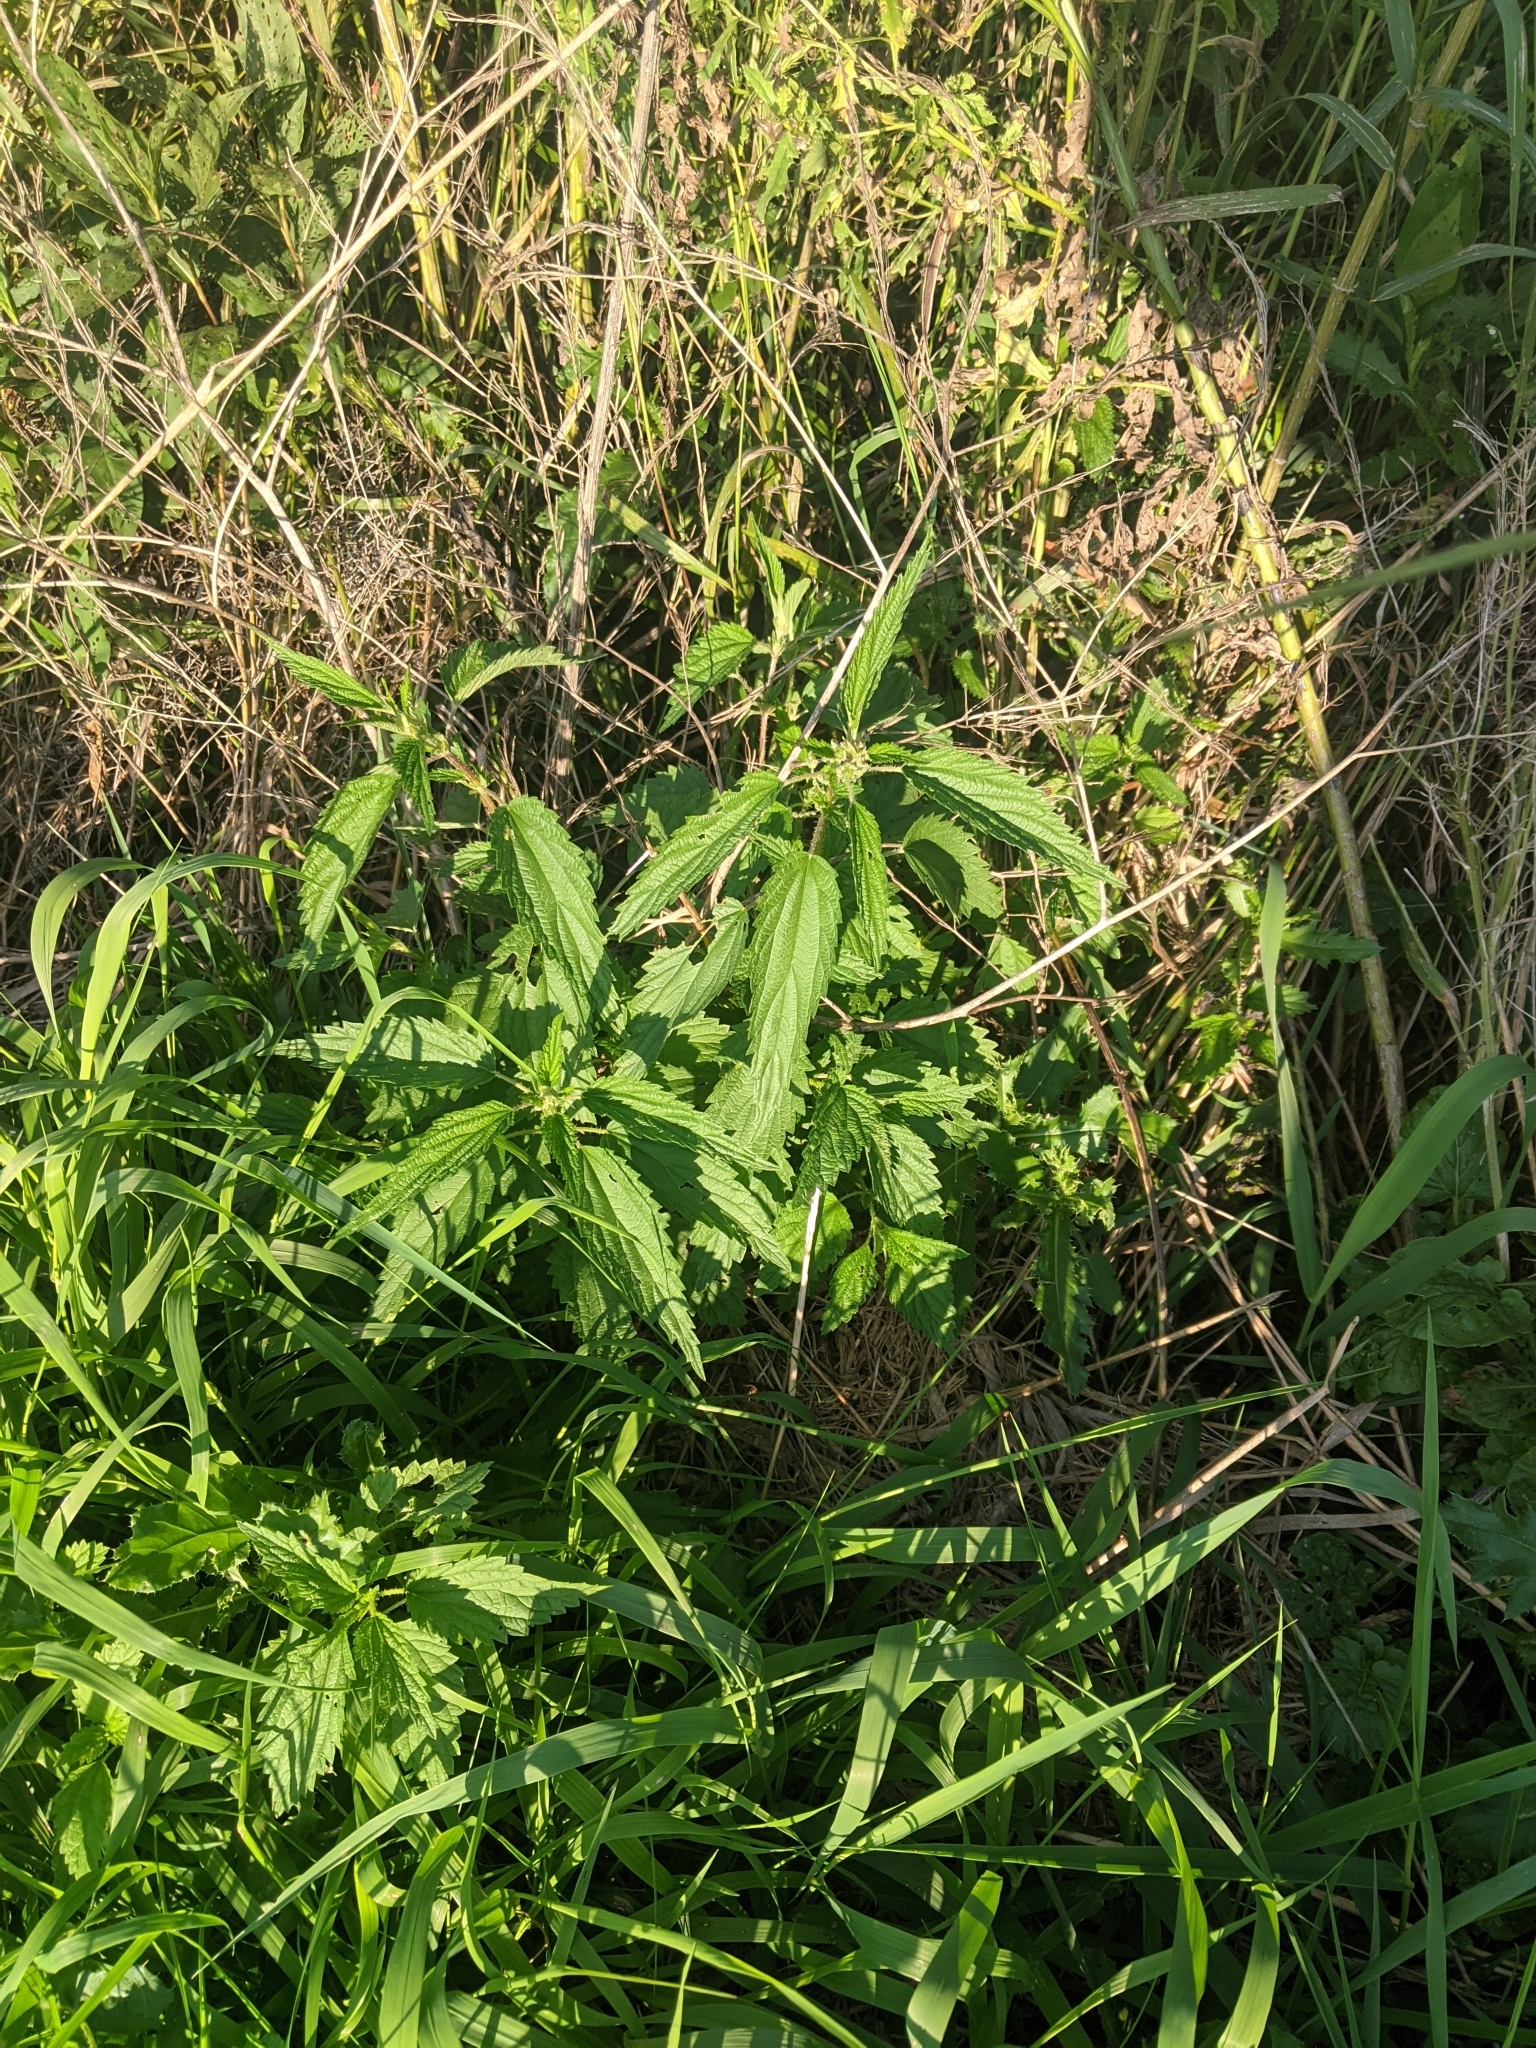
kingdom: Plantae
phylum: Tracheophyta
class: Magnoliopsida
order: Rosales
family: Urticaceae
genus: Urtica
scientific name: Urtica dioica
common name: Common nettle
